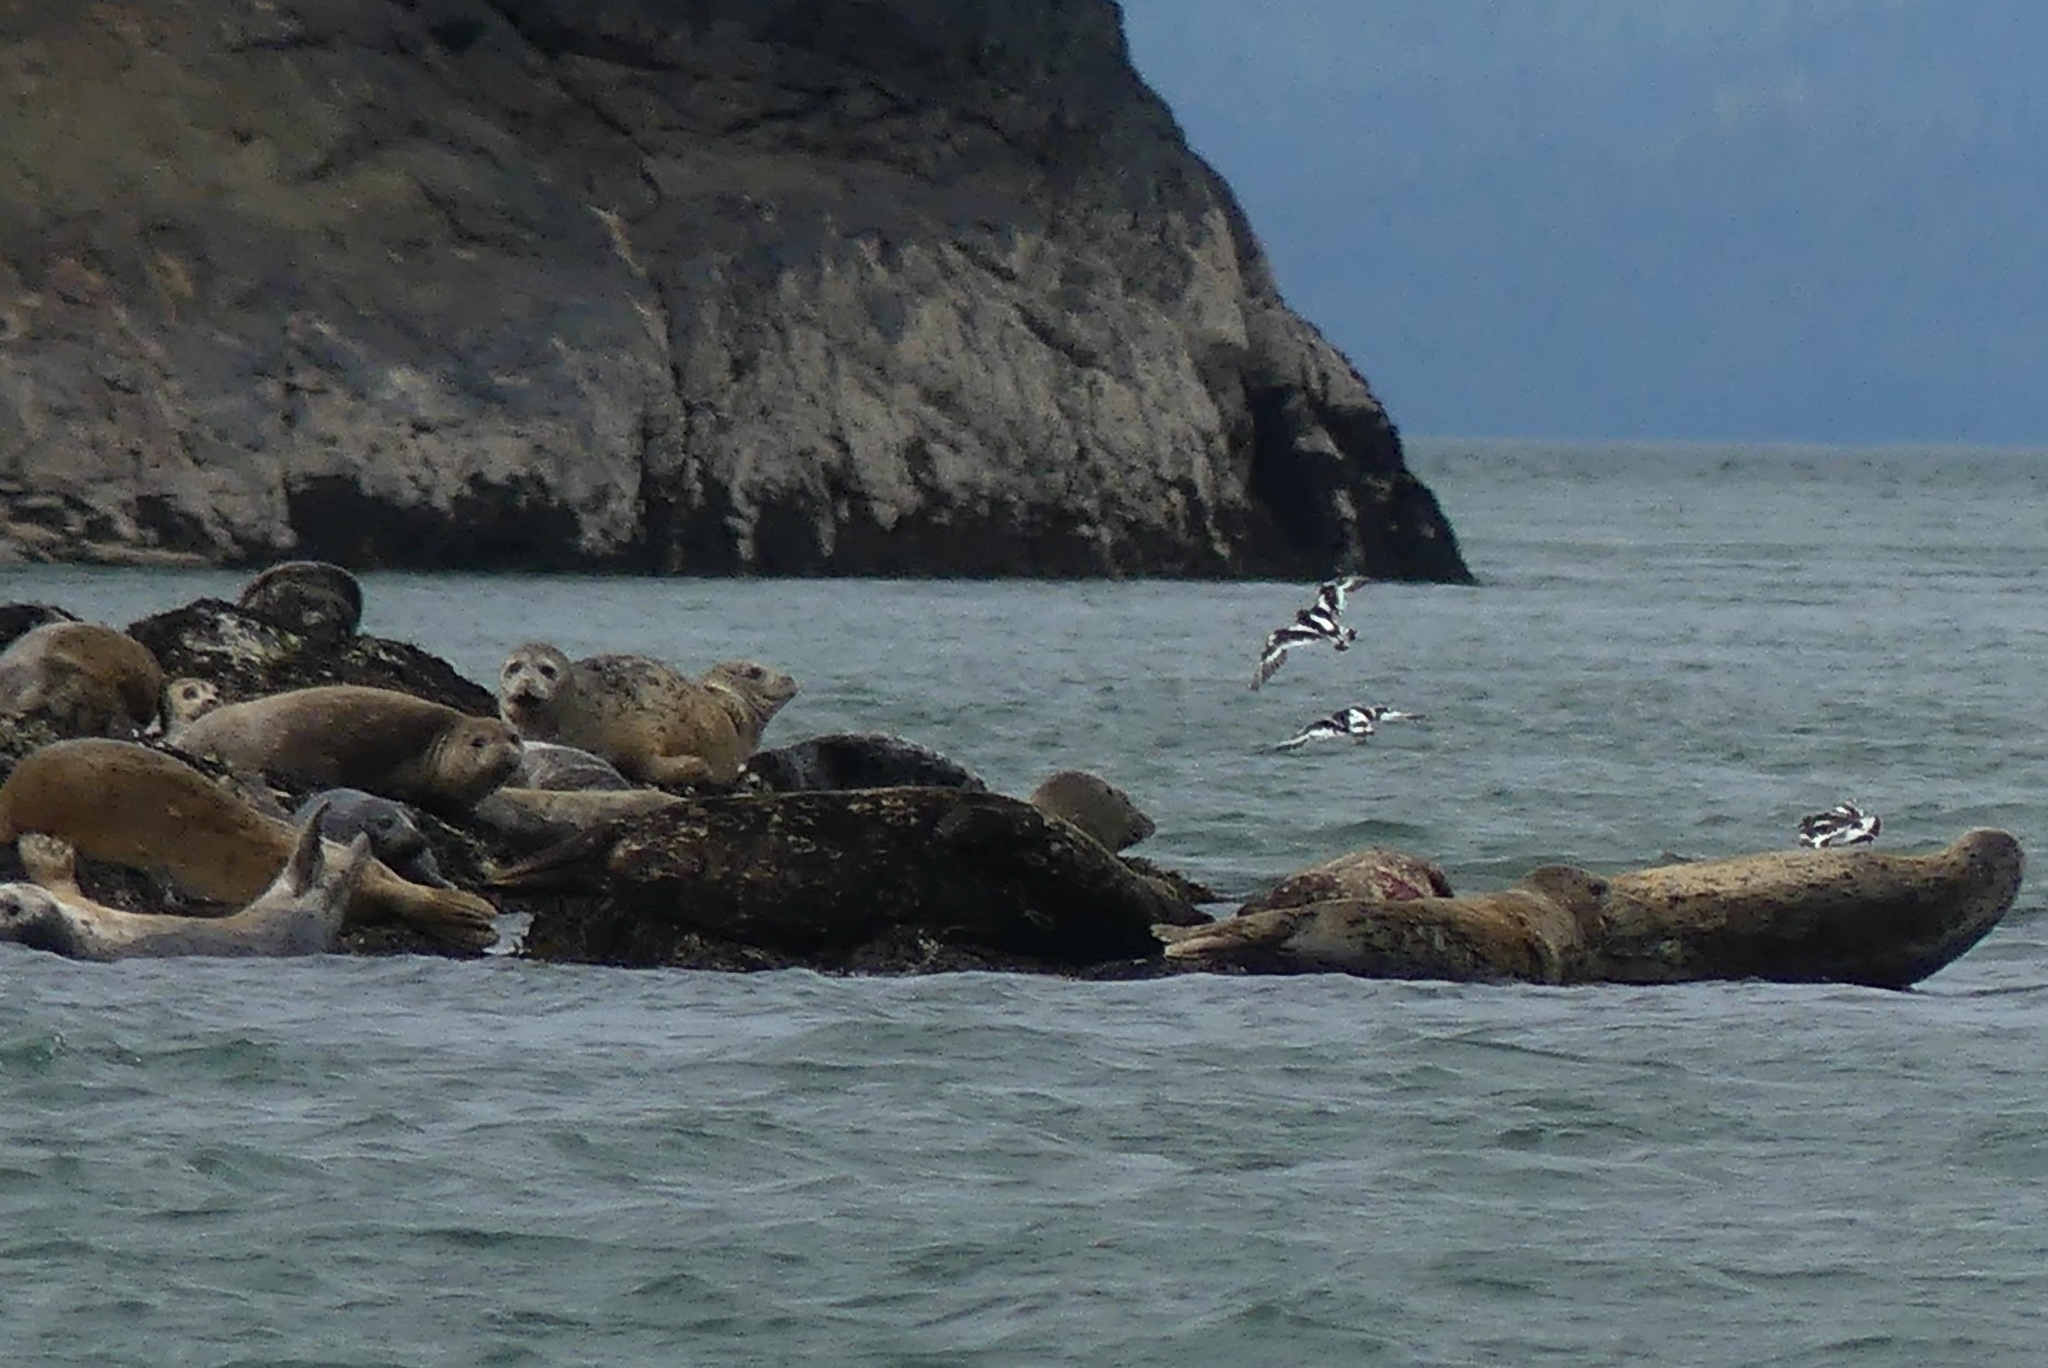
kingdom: Animalia
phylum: Chordata
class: Aves
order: Charadriiformes
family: Scolopacidae
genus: Arenaria
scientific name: Arenaria melanocephala
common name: Black turnstone
